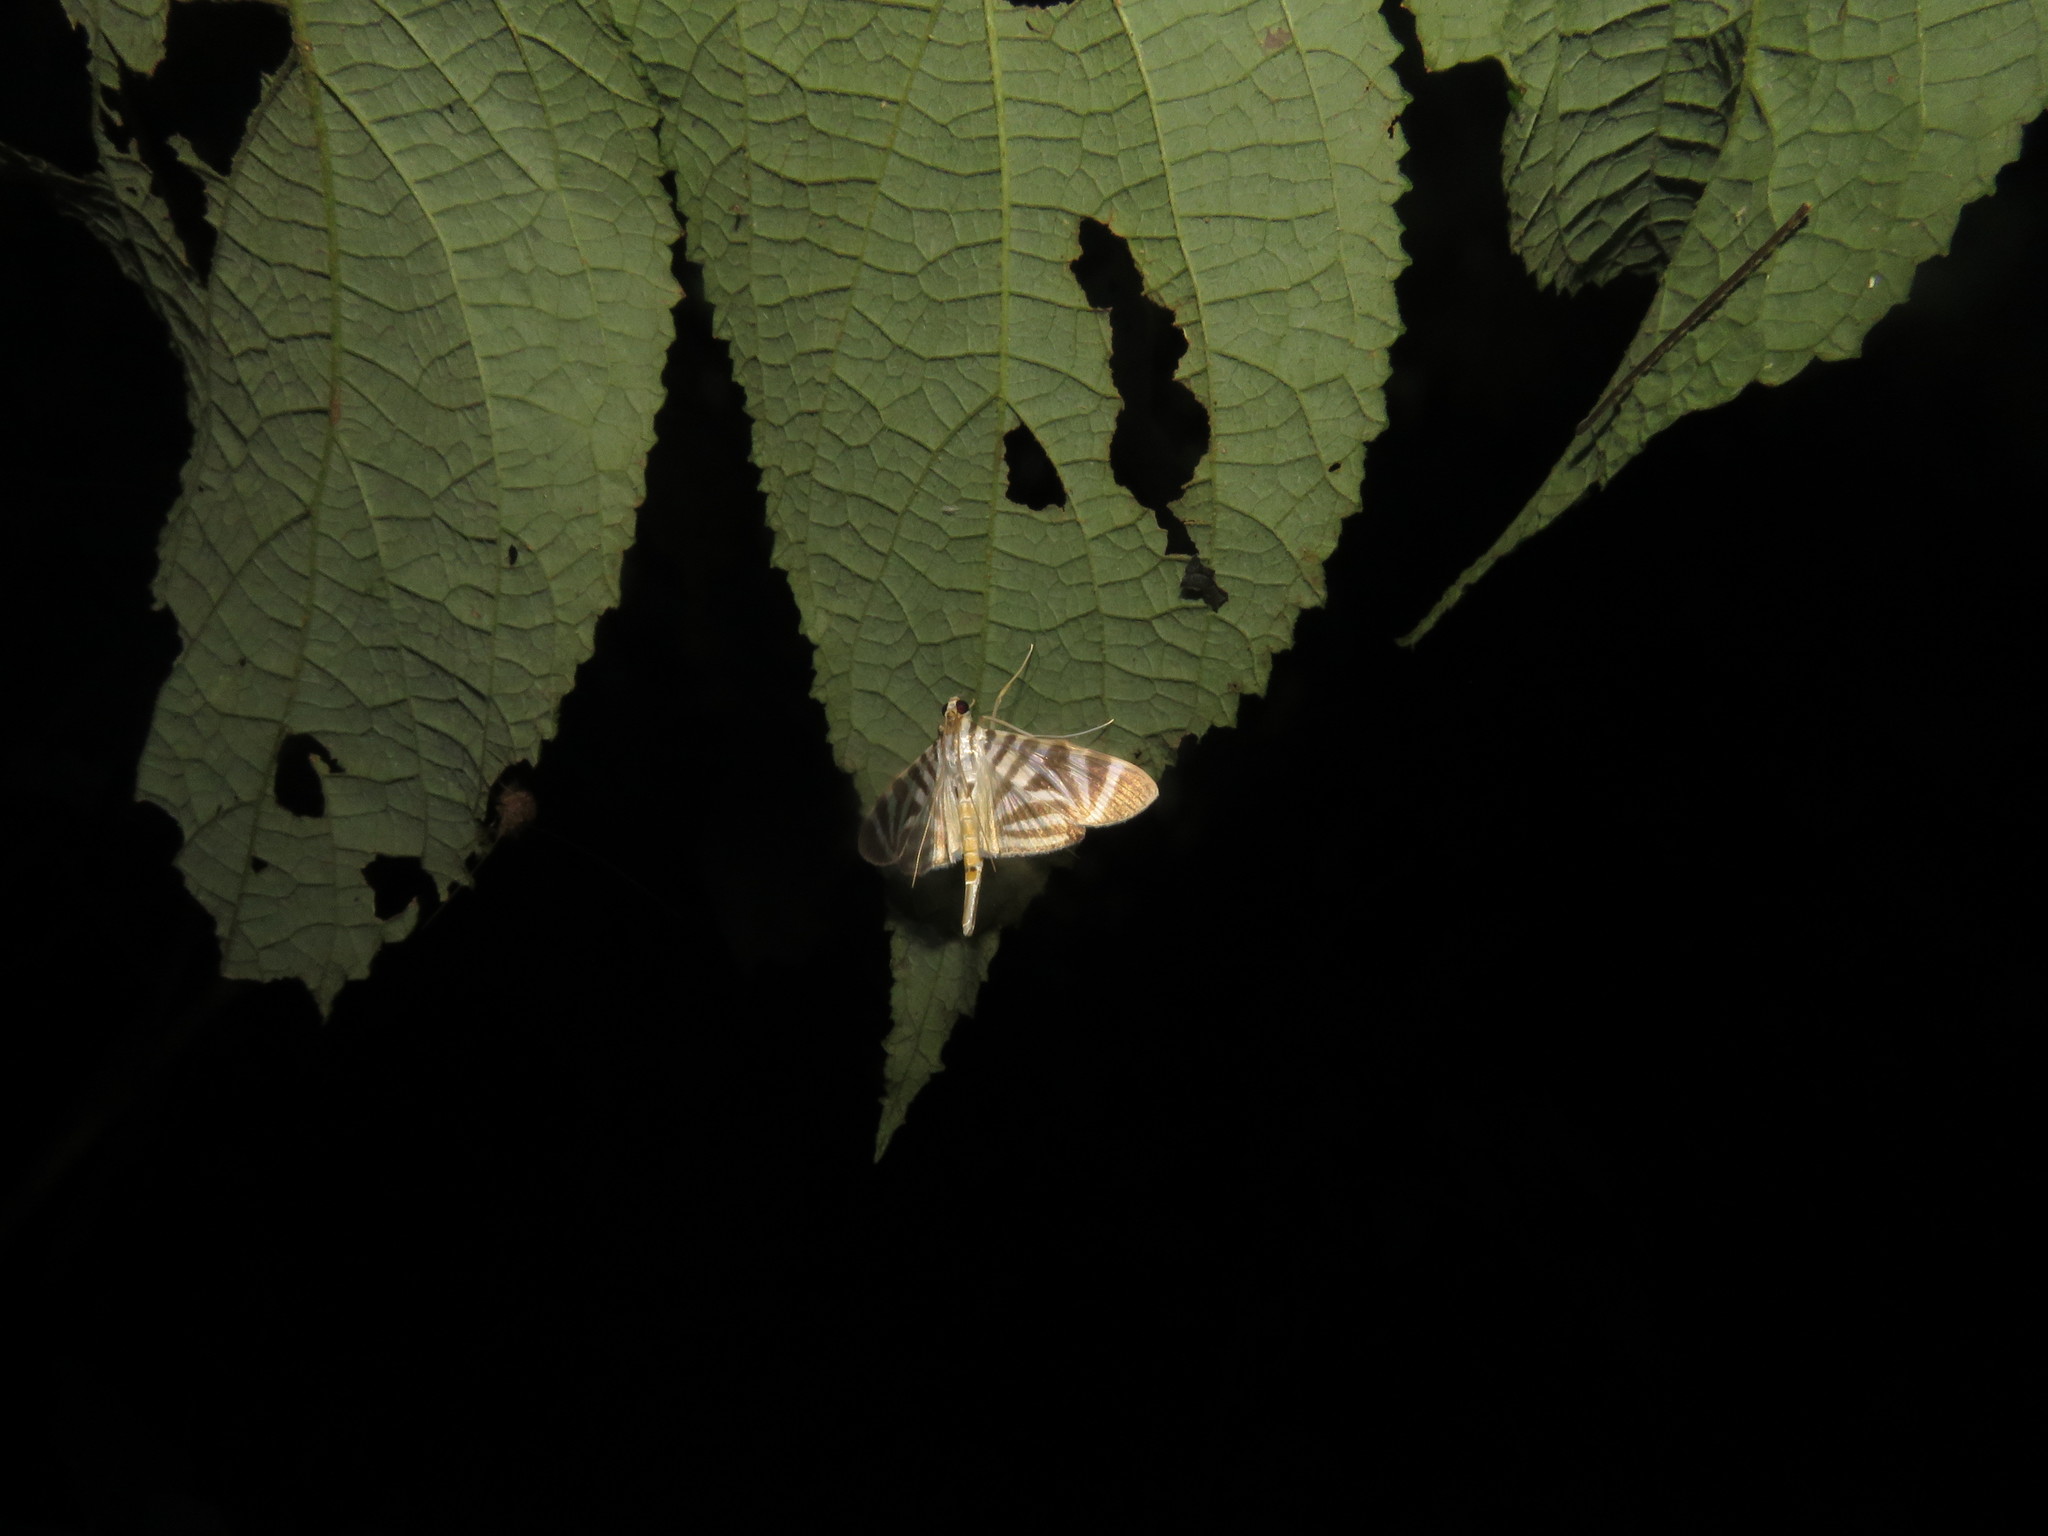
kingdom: Animalia
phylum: Arthropoda
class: Insecta
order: Lepidoptera
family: Crambidae
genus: Zebronia
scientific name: Zebronia Spilomela perspicata
